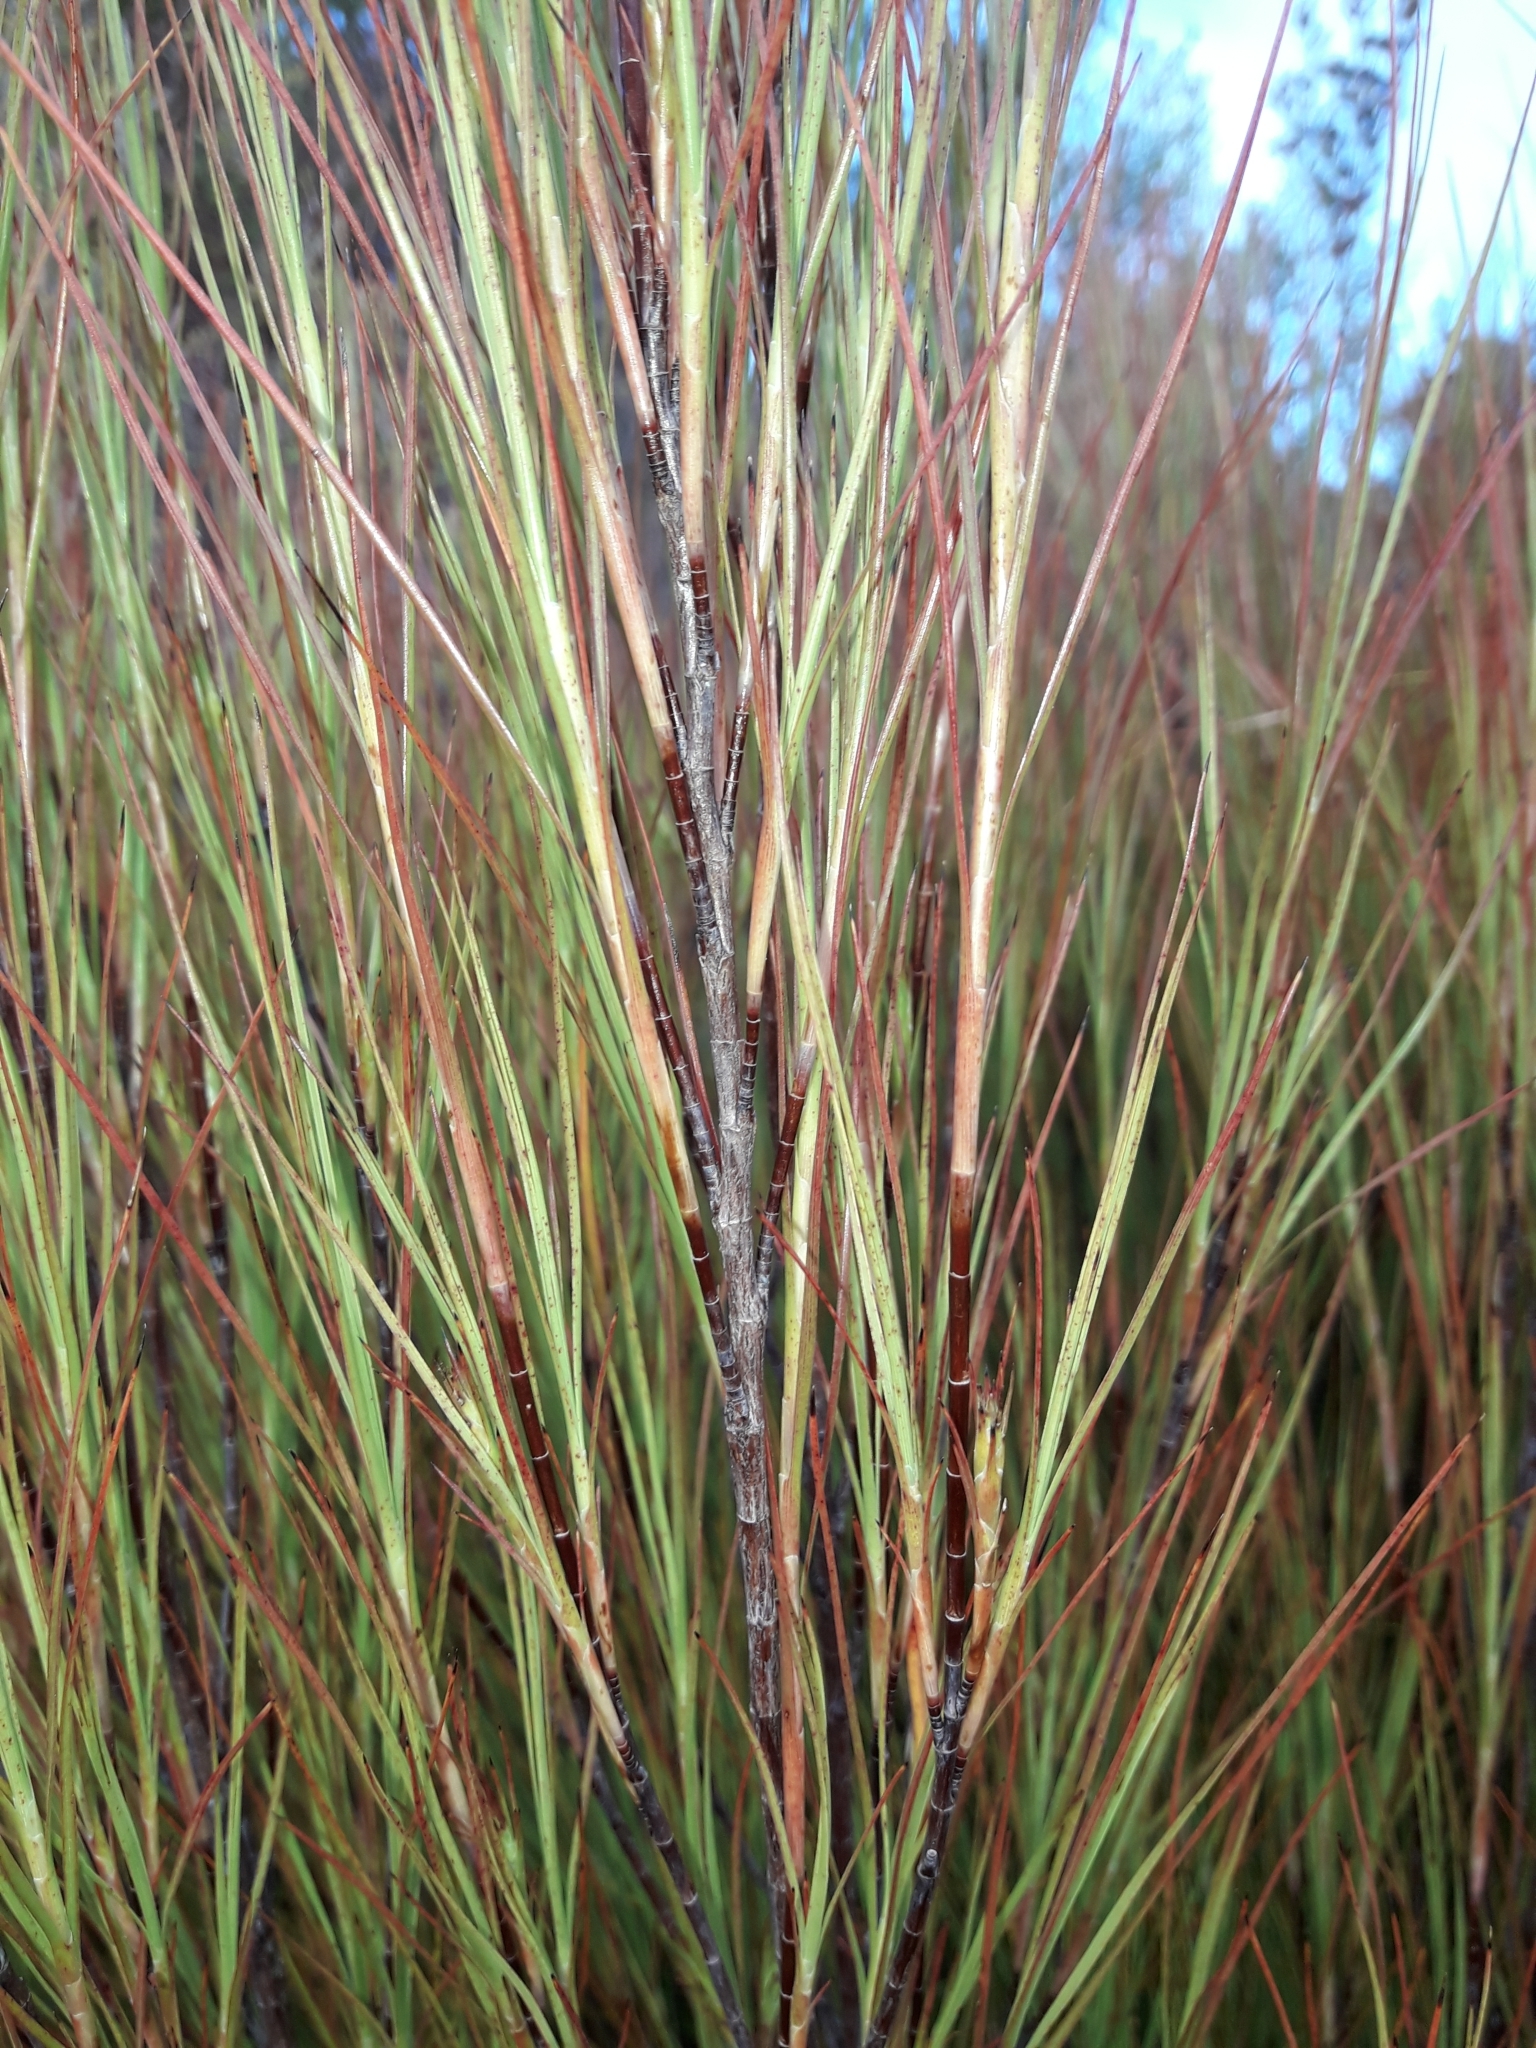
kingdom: Plantae
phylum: Tracheophyta
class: Magnoliopsida
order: Ericales
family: Ericaceae
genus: Dracophyllum
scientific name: Dracophyllum filifolium
